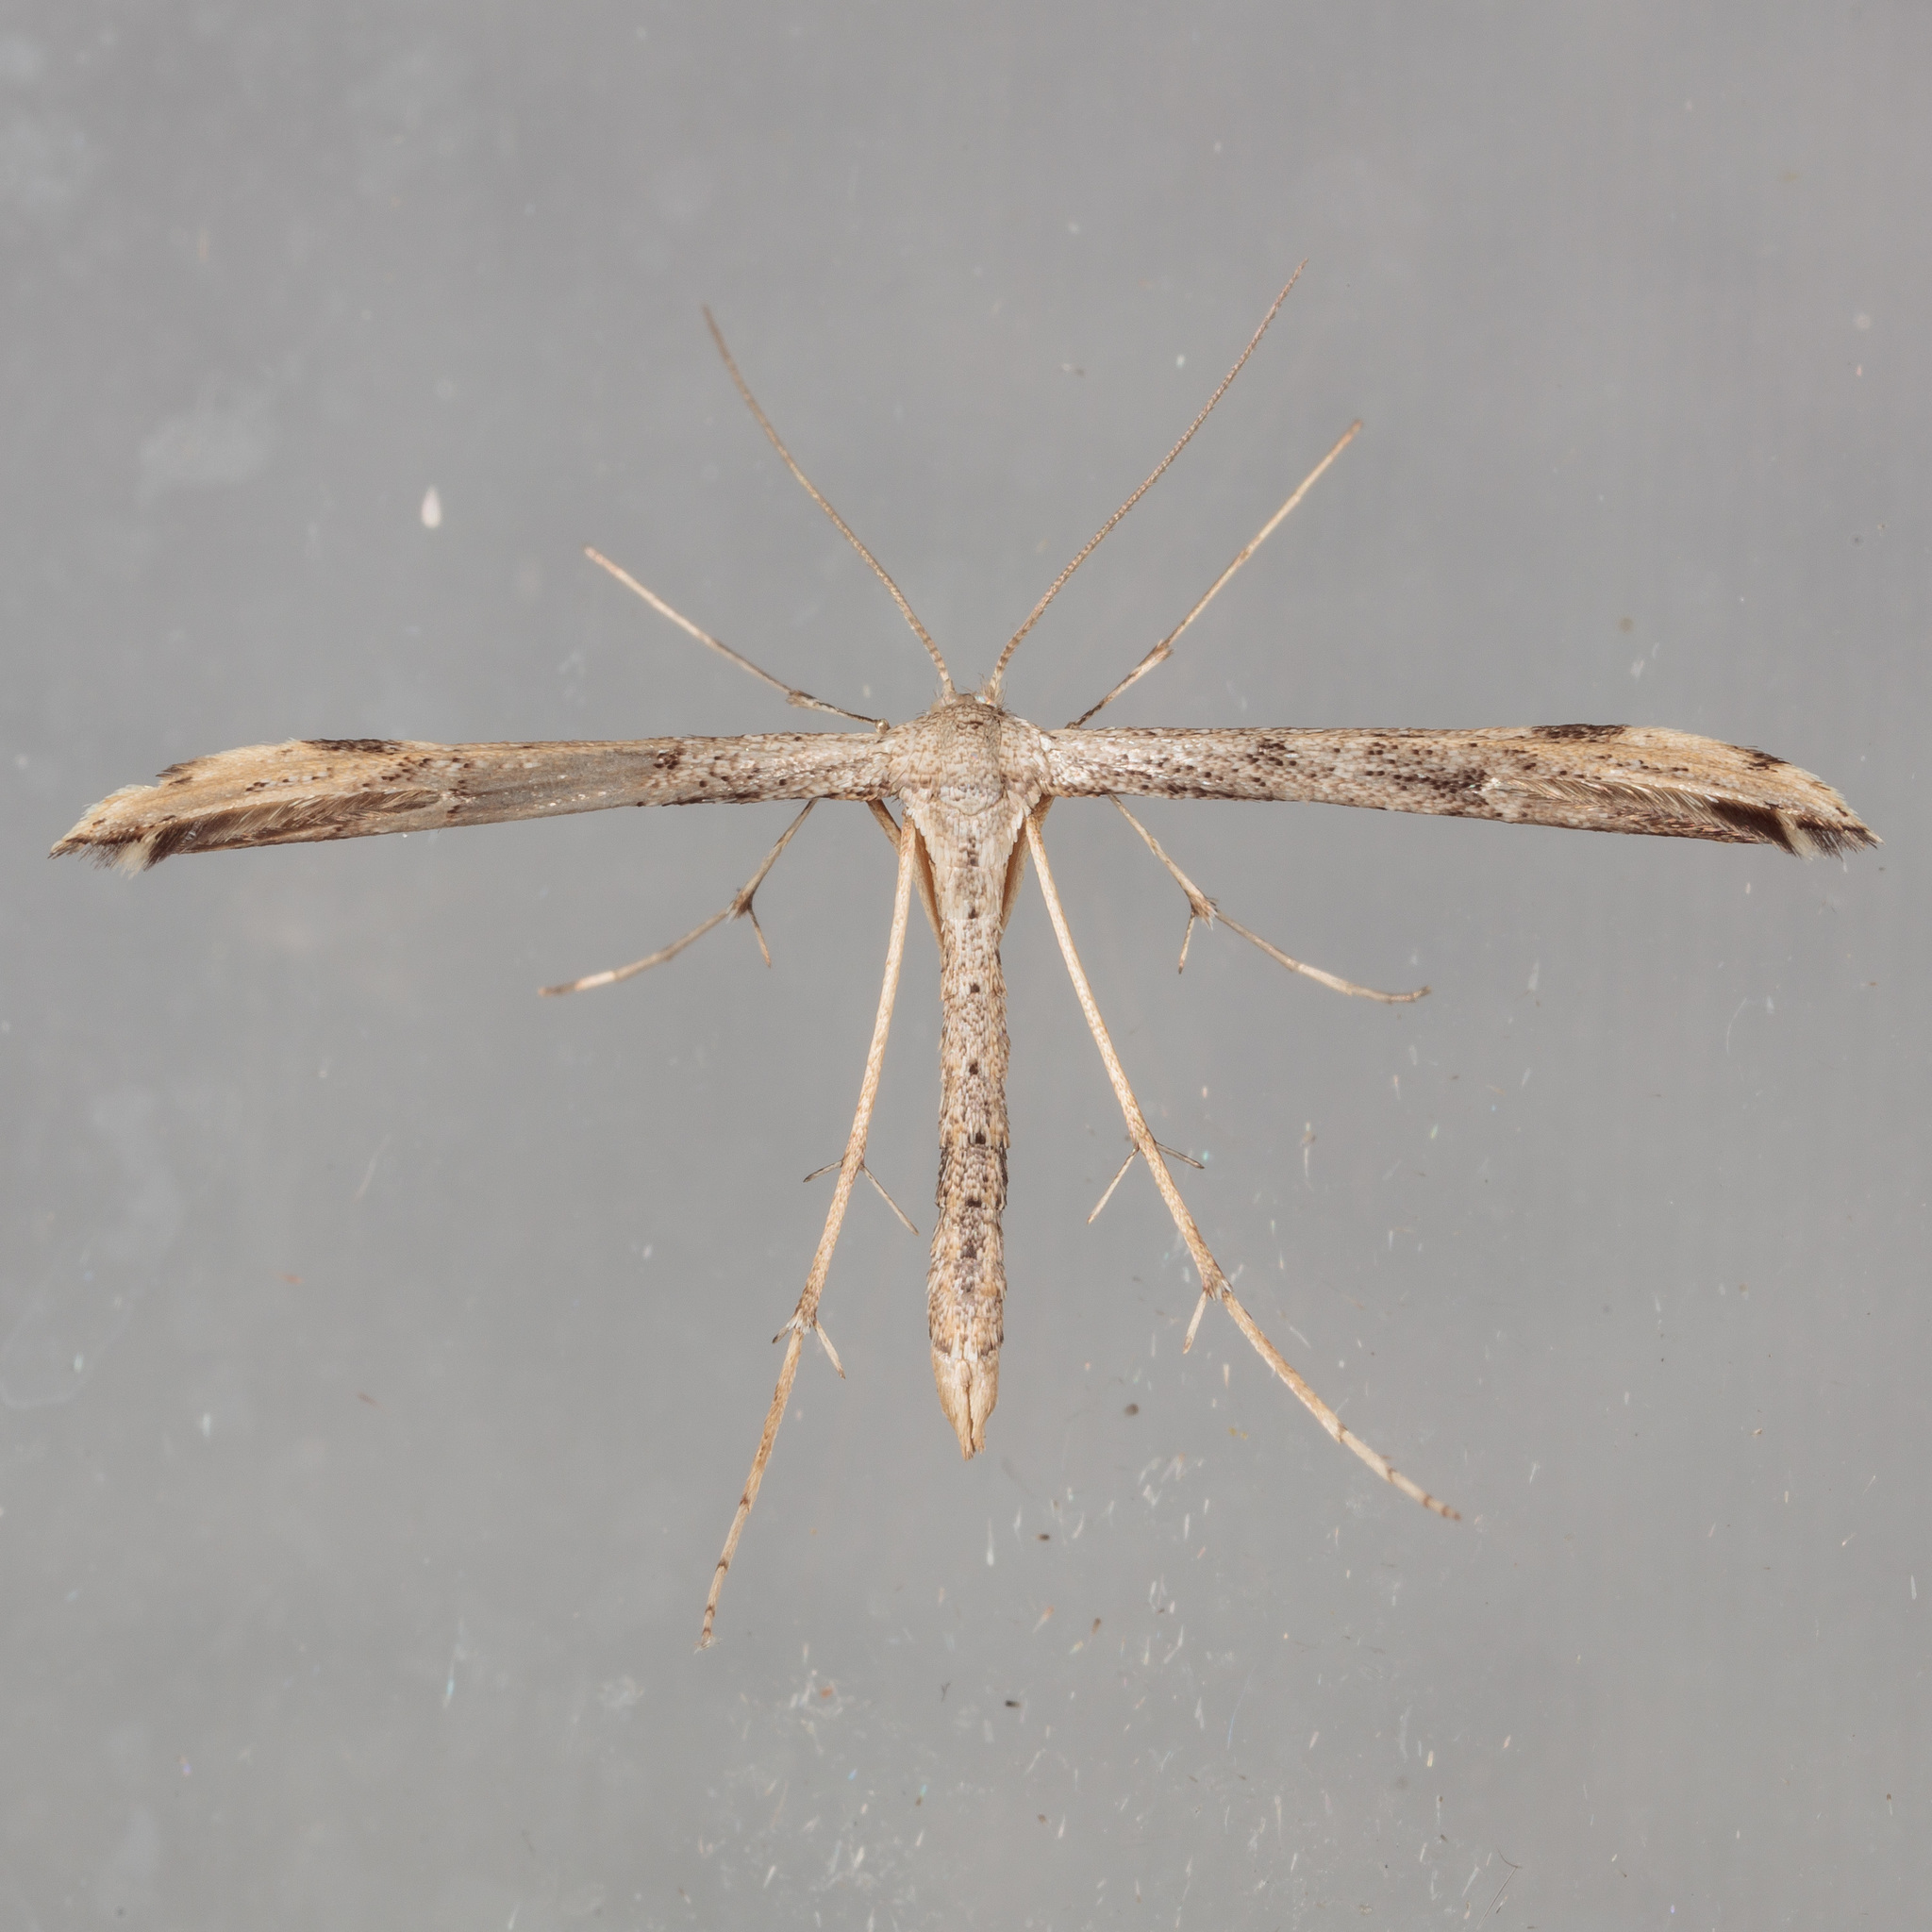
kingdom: Animalia
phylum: Arthropoda
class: Insecta
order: Lepidoptera
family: Pterophoridae
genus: Adaina
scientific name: Adaina ambrosiae
